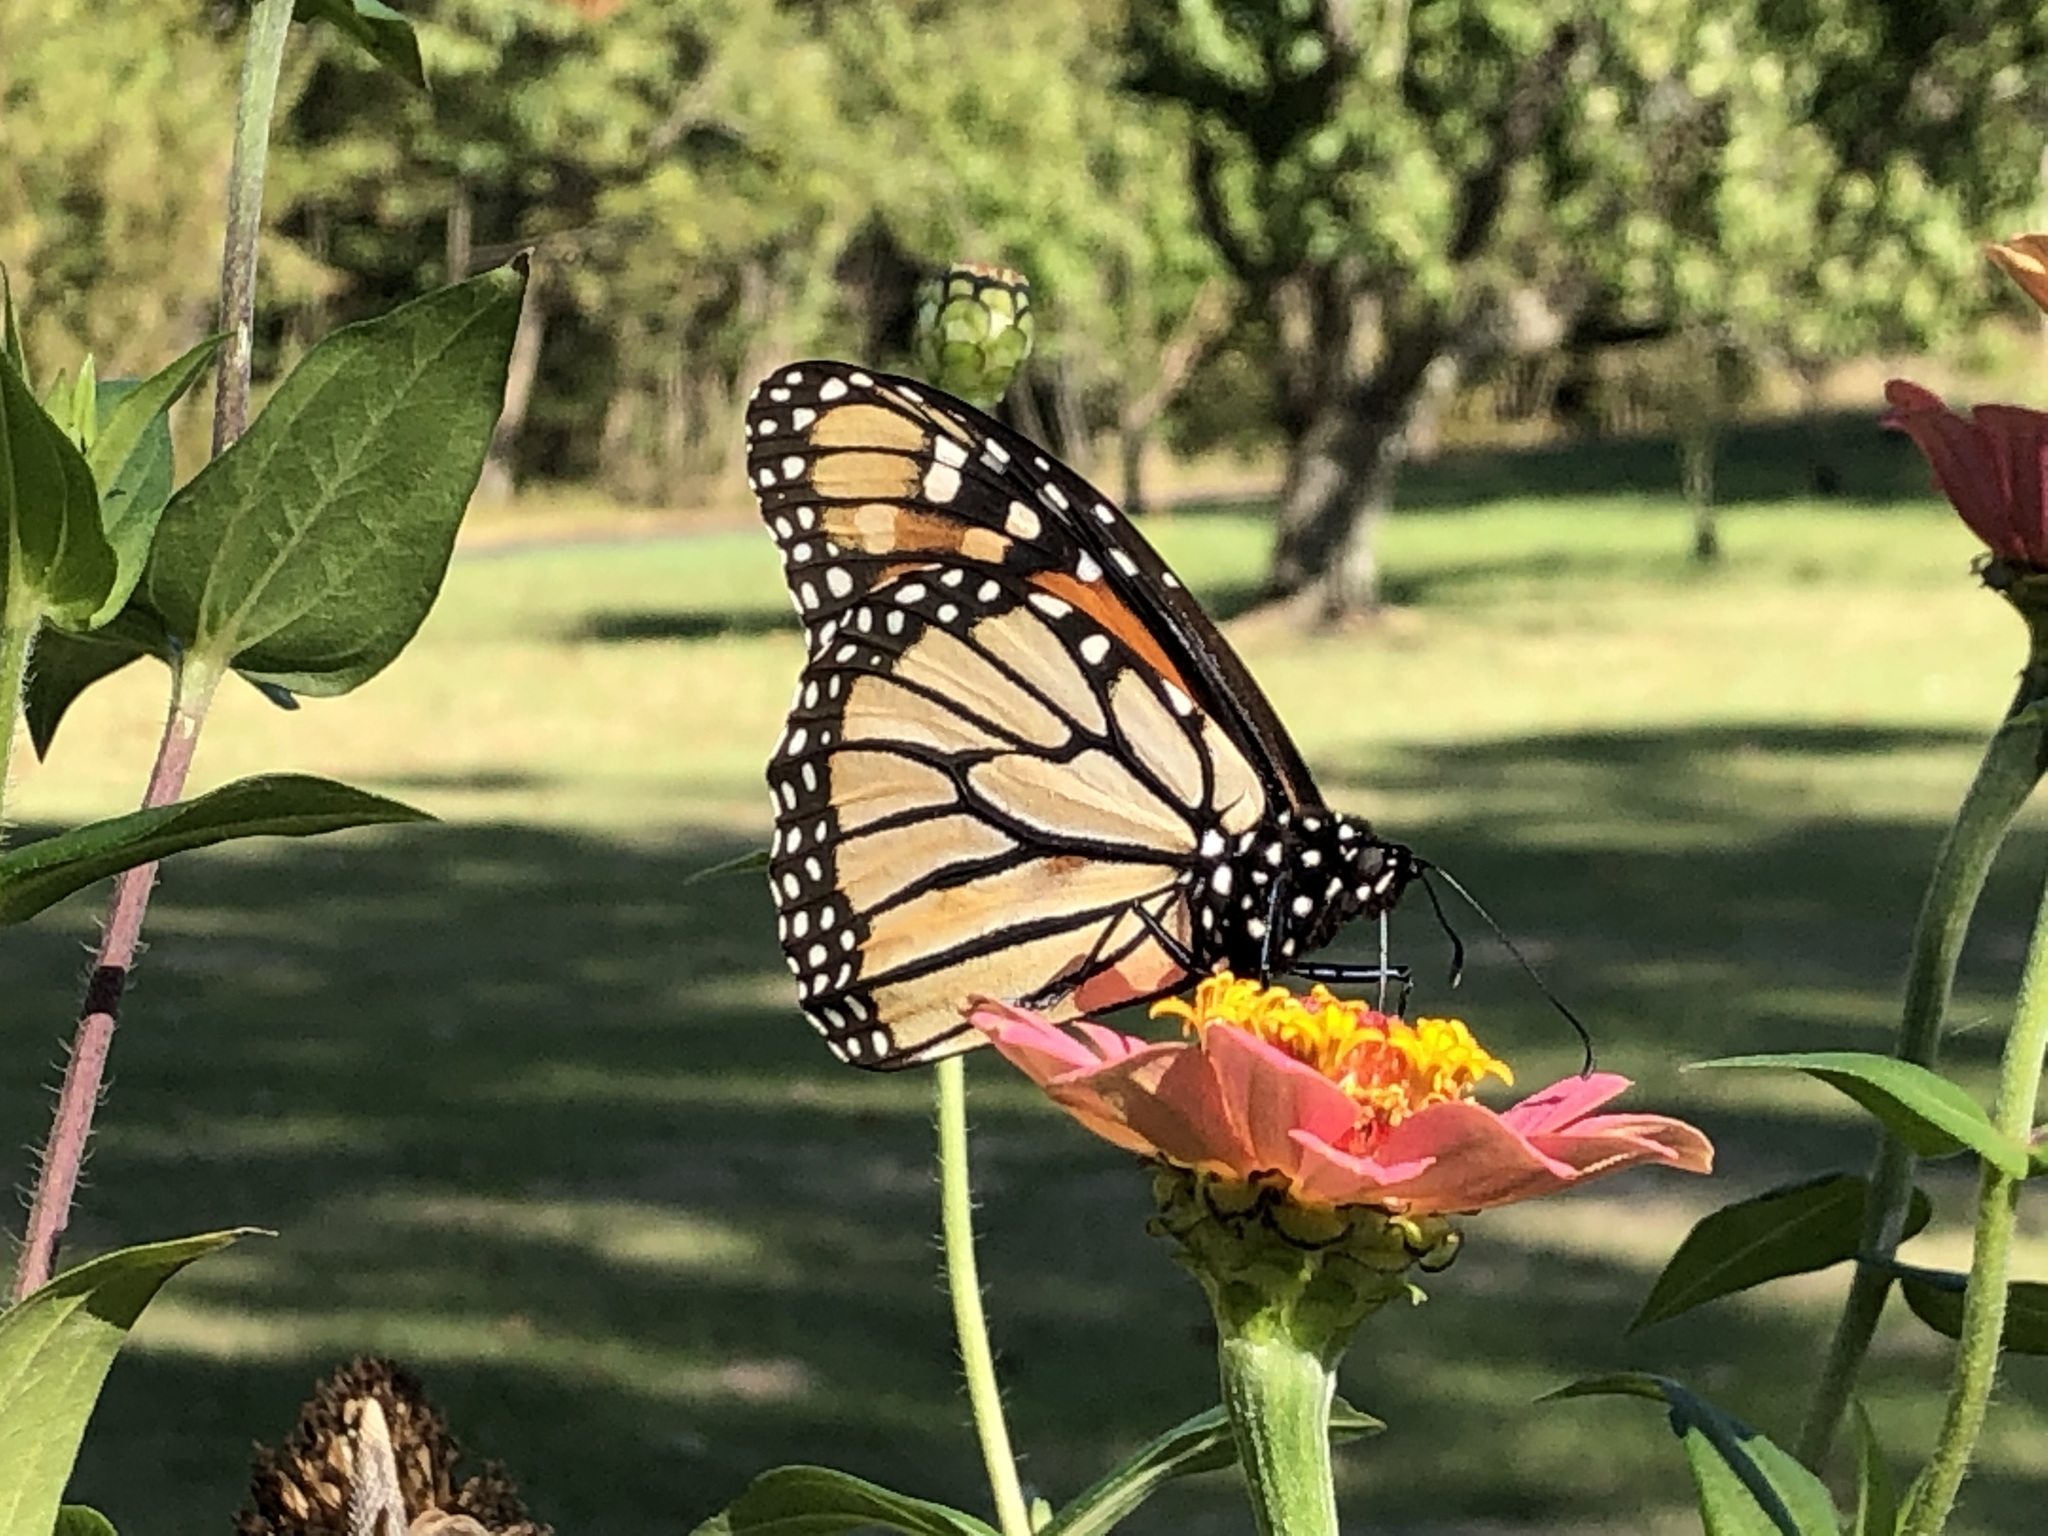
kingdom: Animalia
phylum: Arthropoda
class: Insecta
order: Lepidoptera
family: Nymphalidae
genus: Danaus
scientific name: Danaus plexippus
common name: Monarch
